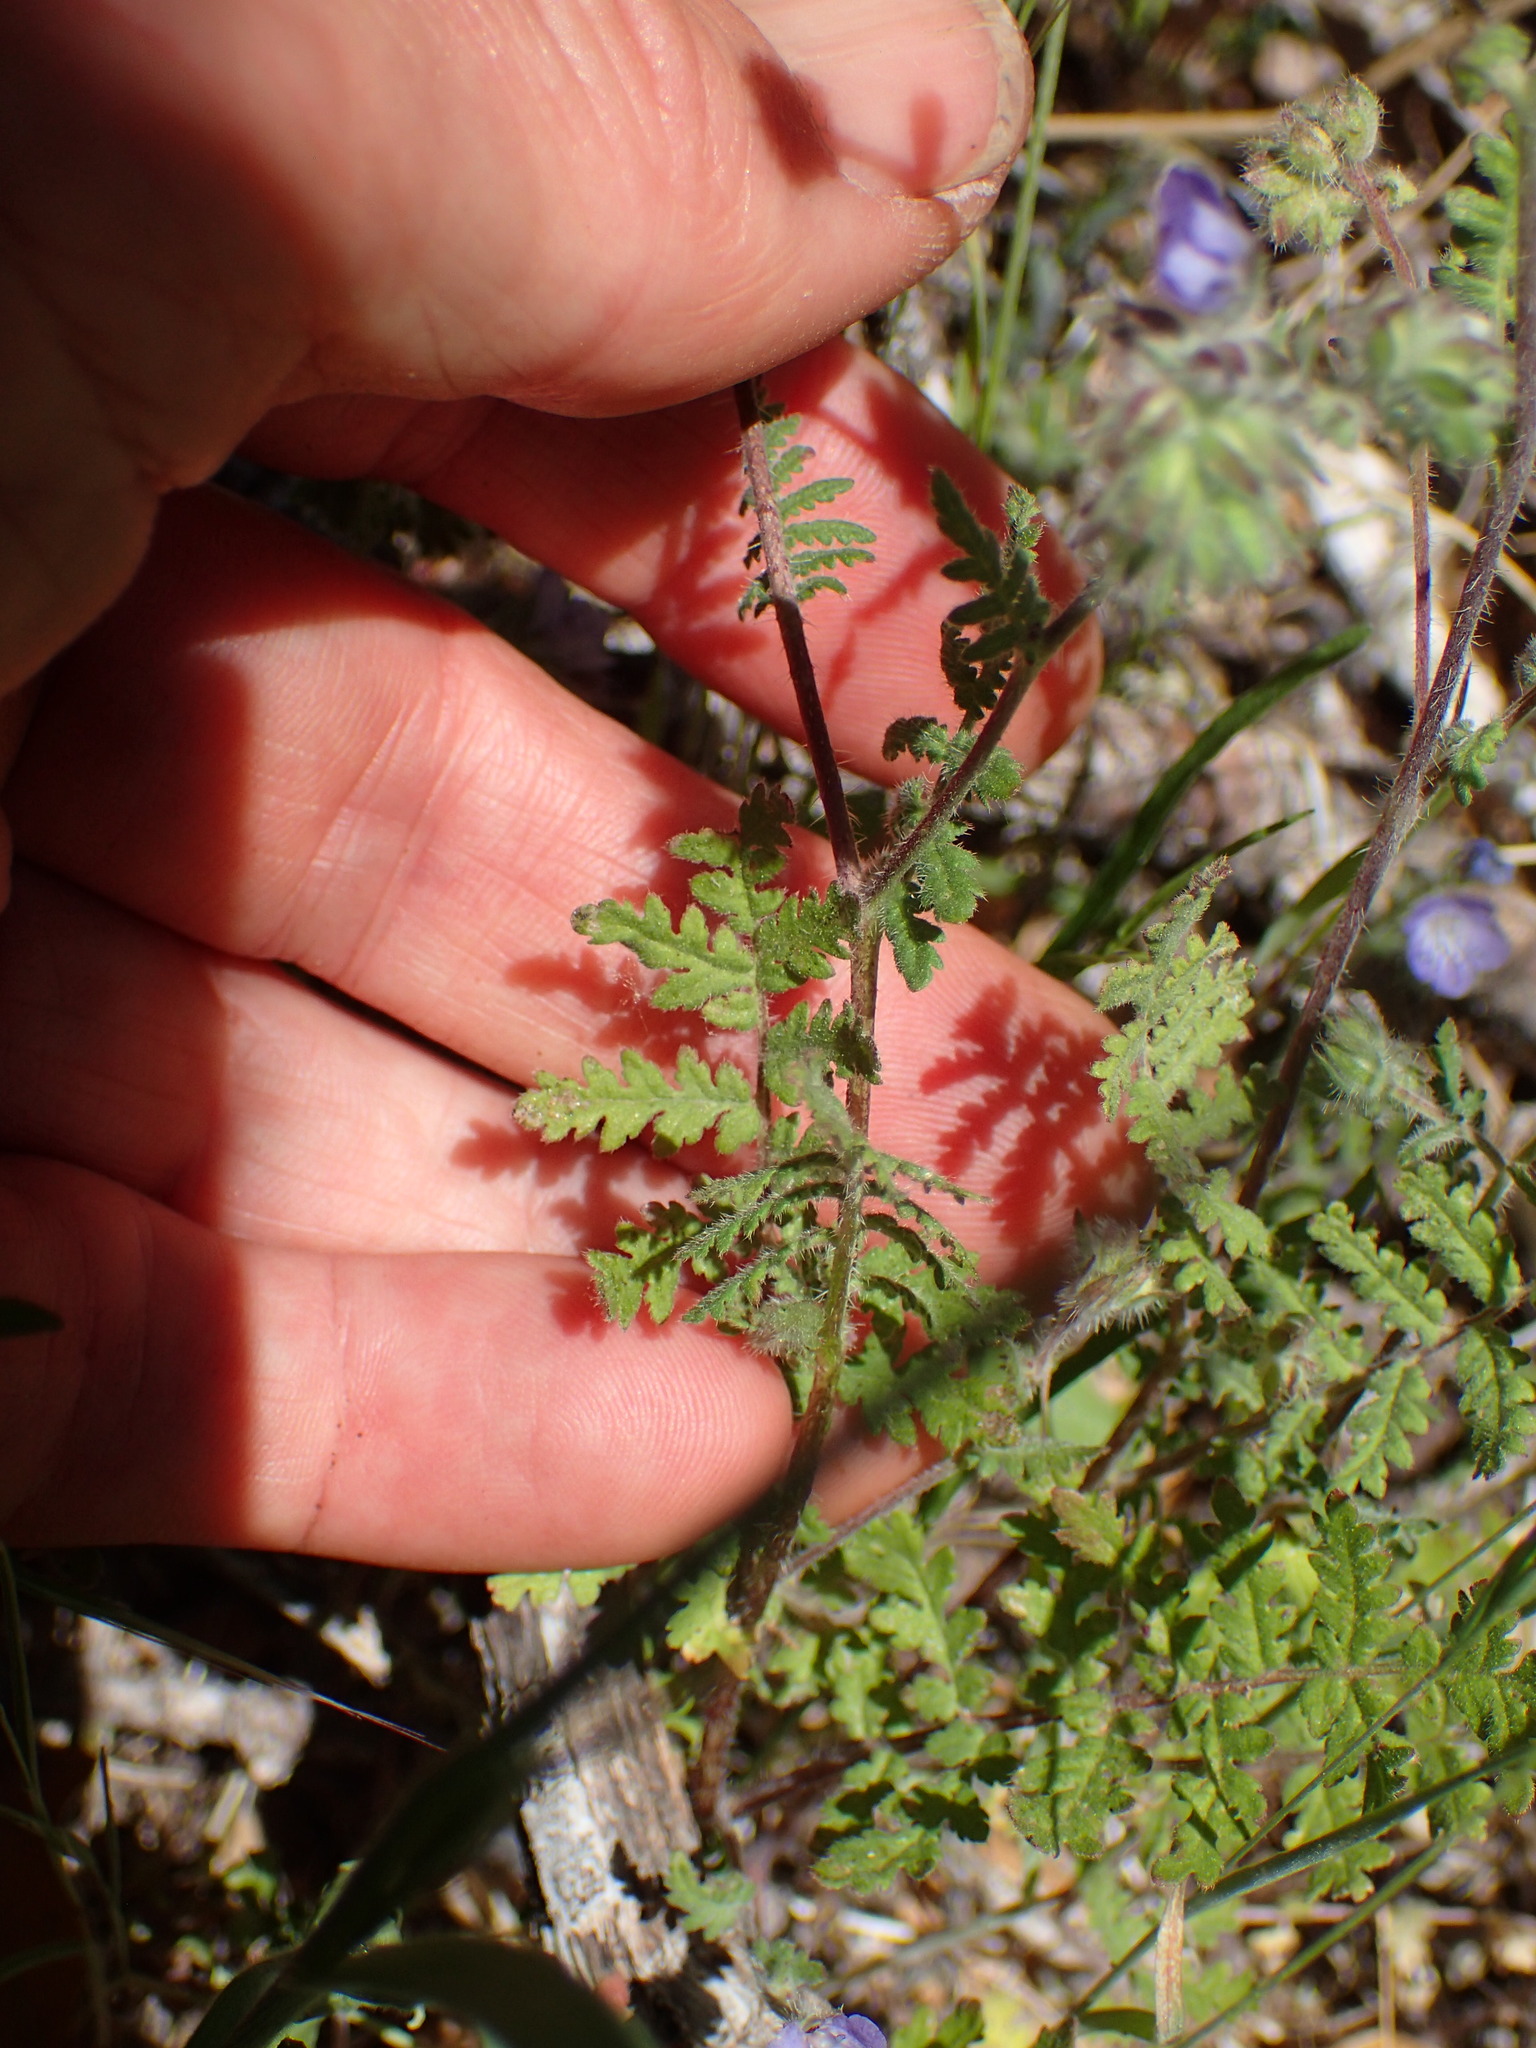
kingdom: Plantae
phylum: Tracheophyta
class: Magnoliopsida
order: Boraginales
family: Hydrophyllaceae
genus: Phacelia
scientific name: Phacelia distans
